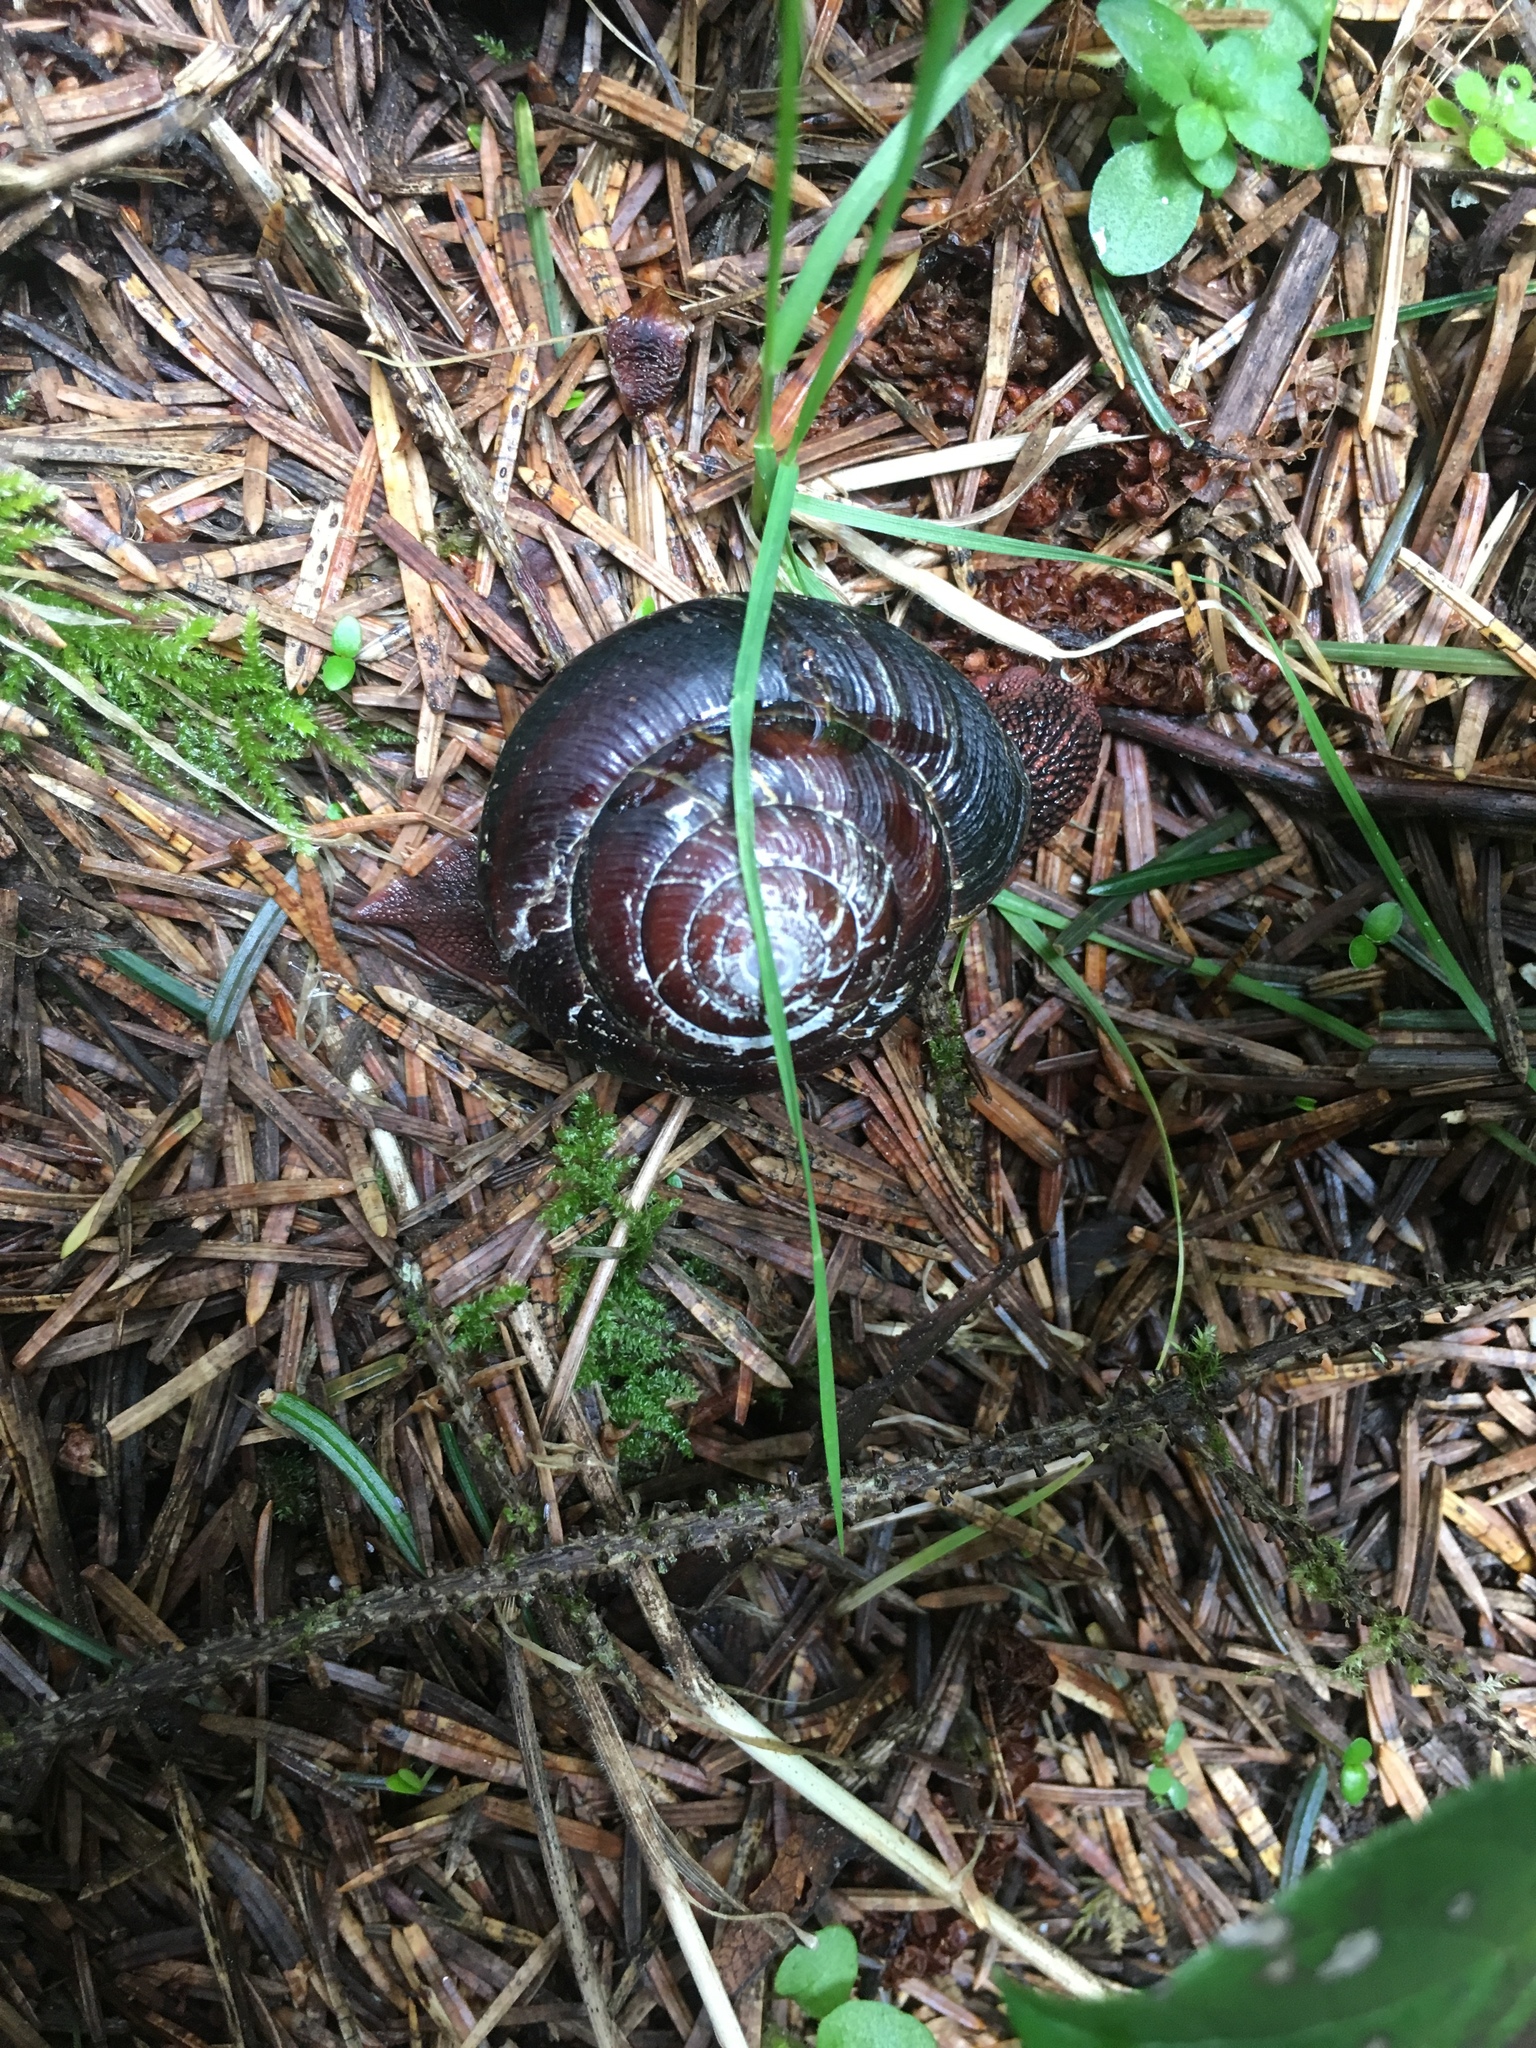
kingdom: Animalia
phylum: Mollusca
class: Gastropoda
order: Stylommatophora
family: Xanthonychidae
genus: Monadenia
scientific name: Monadenia fidelis
